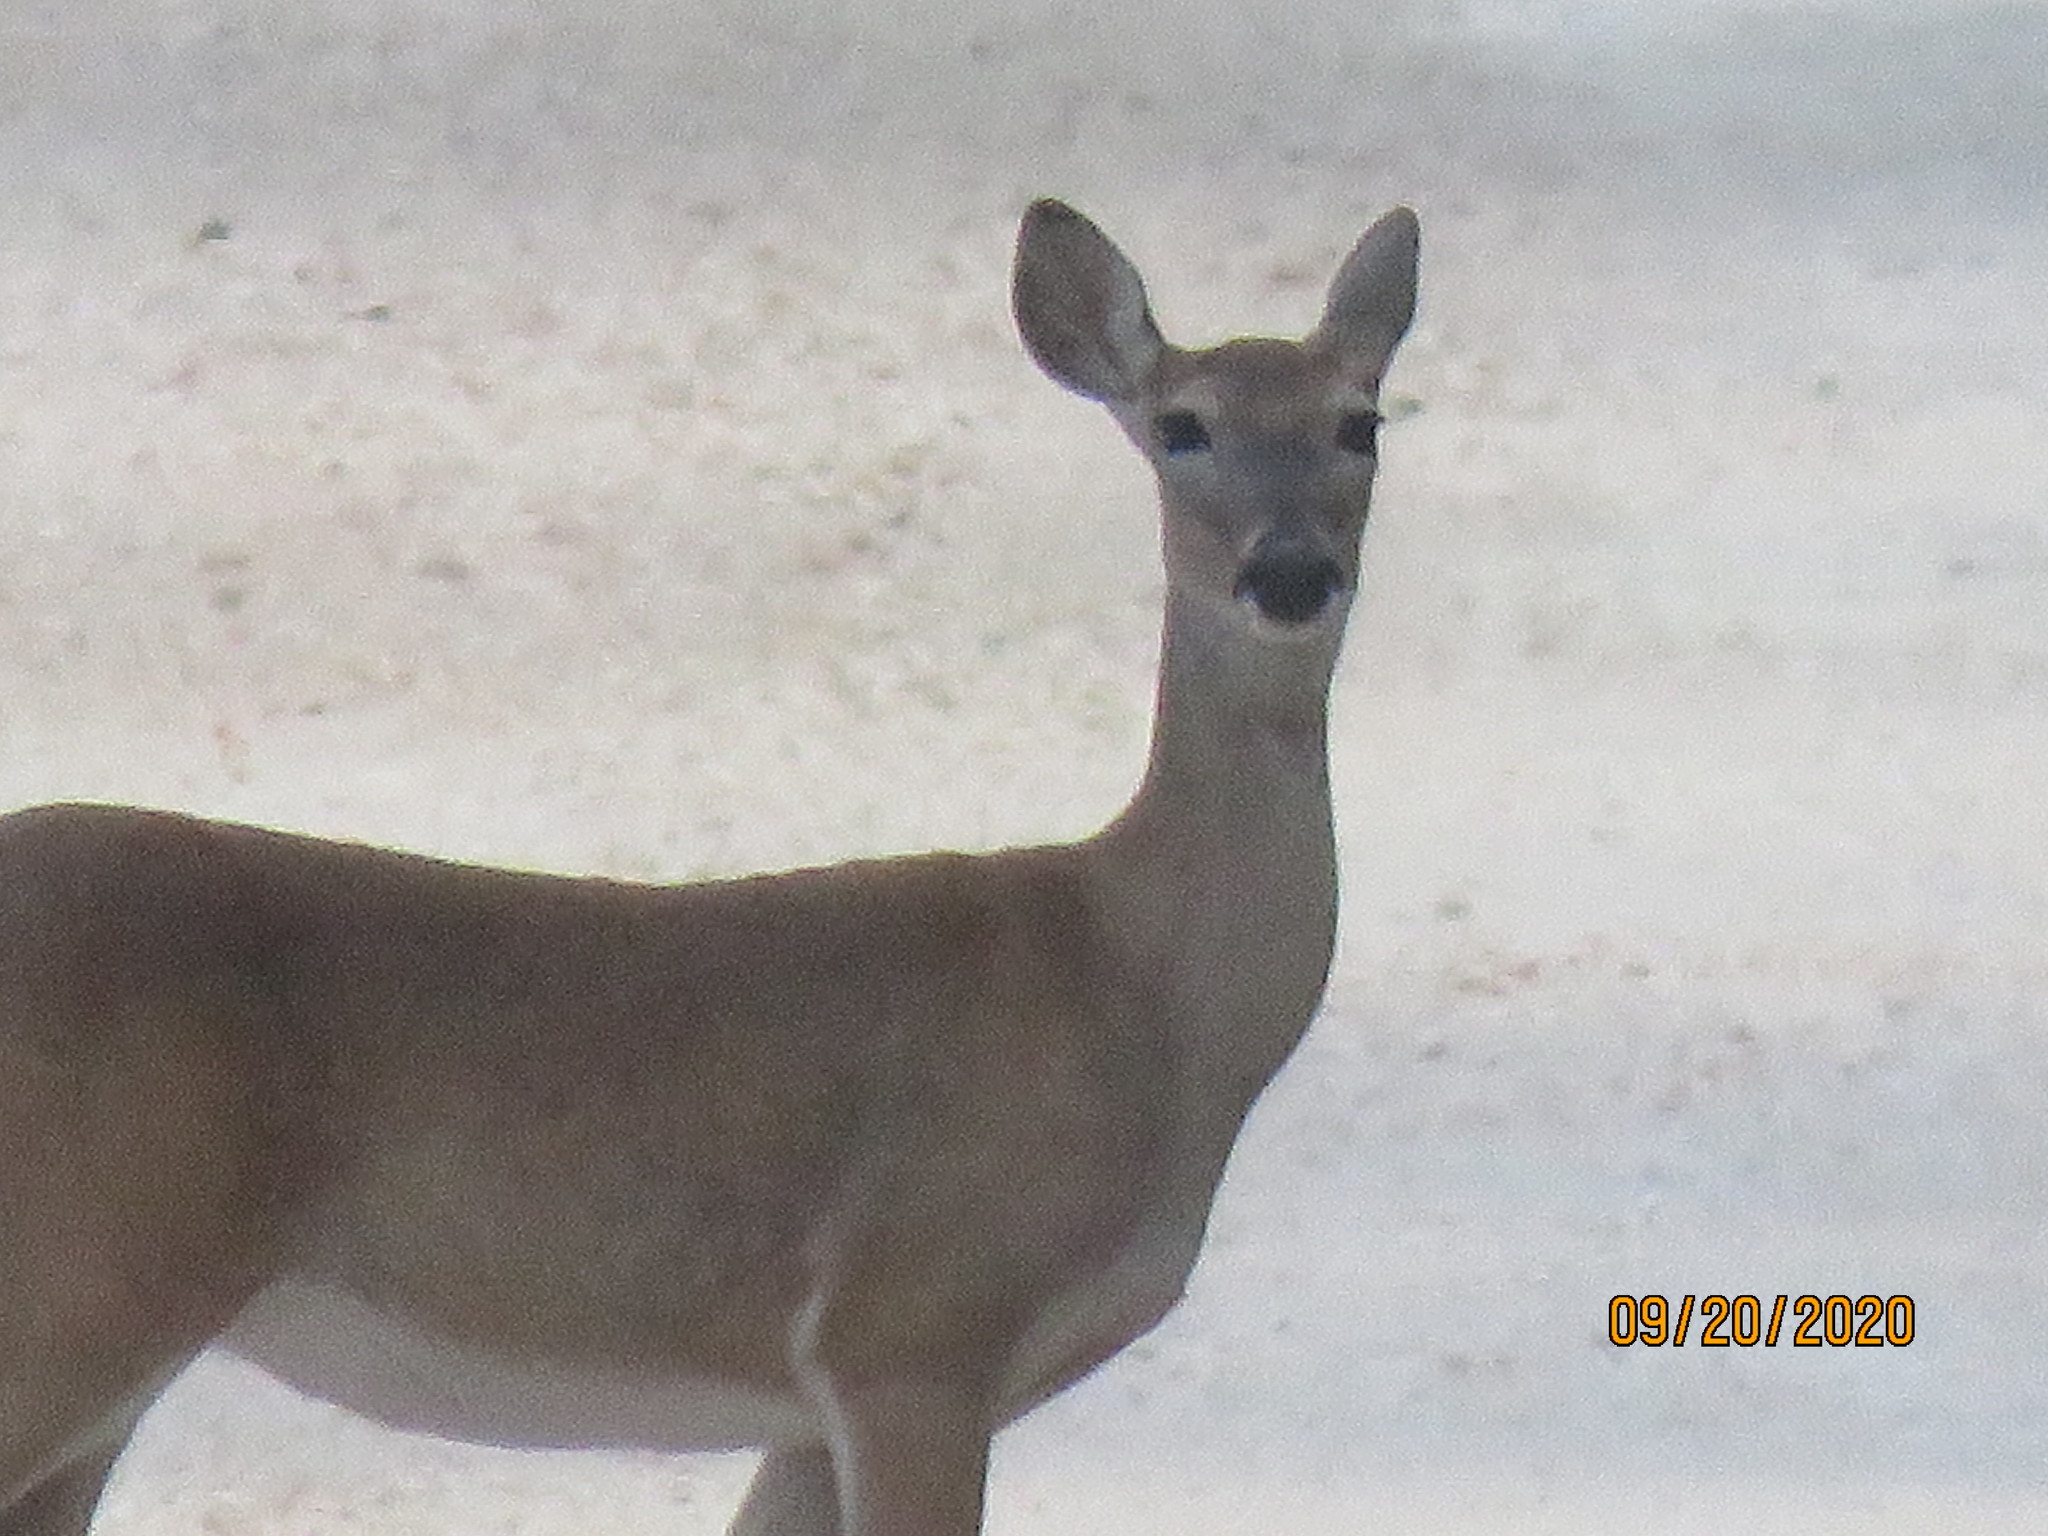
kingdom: Animalia
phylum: Chordata
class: Mammalia
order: Artiodactyla
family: Cervidae
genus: Odocoileus
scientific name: Odocoileus virginianus
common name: White-tailed deer
